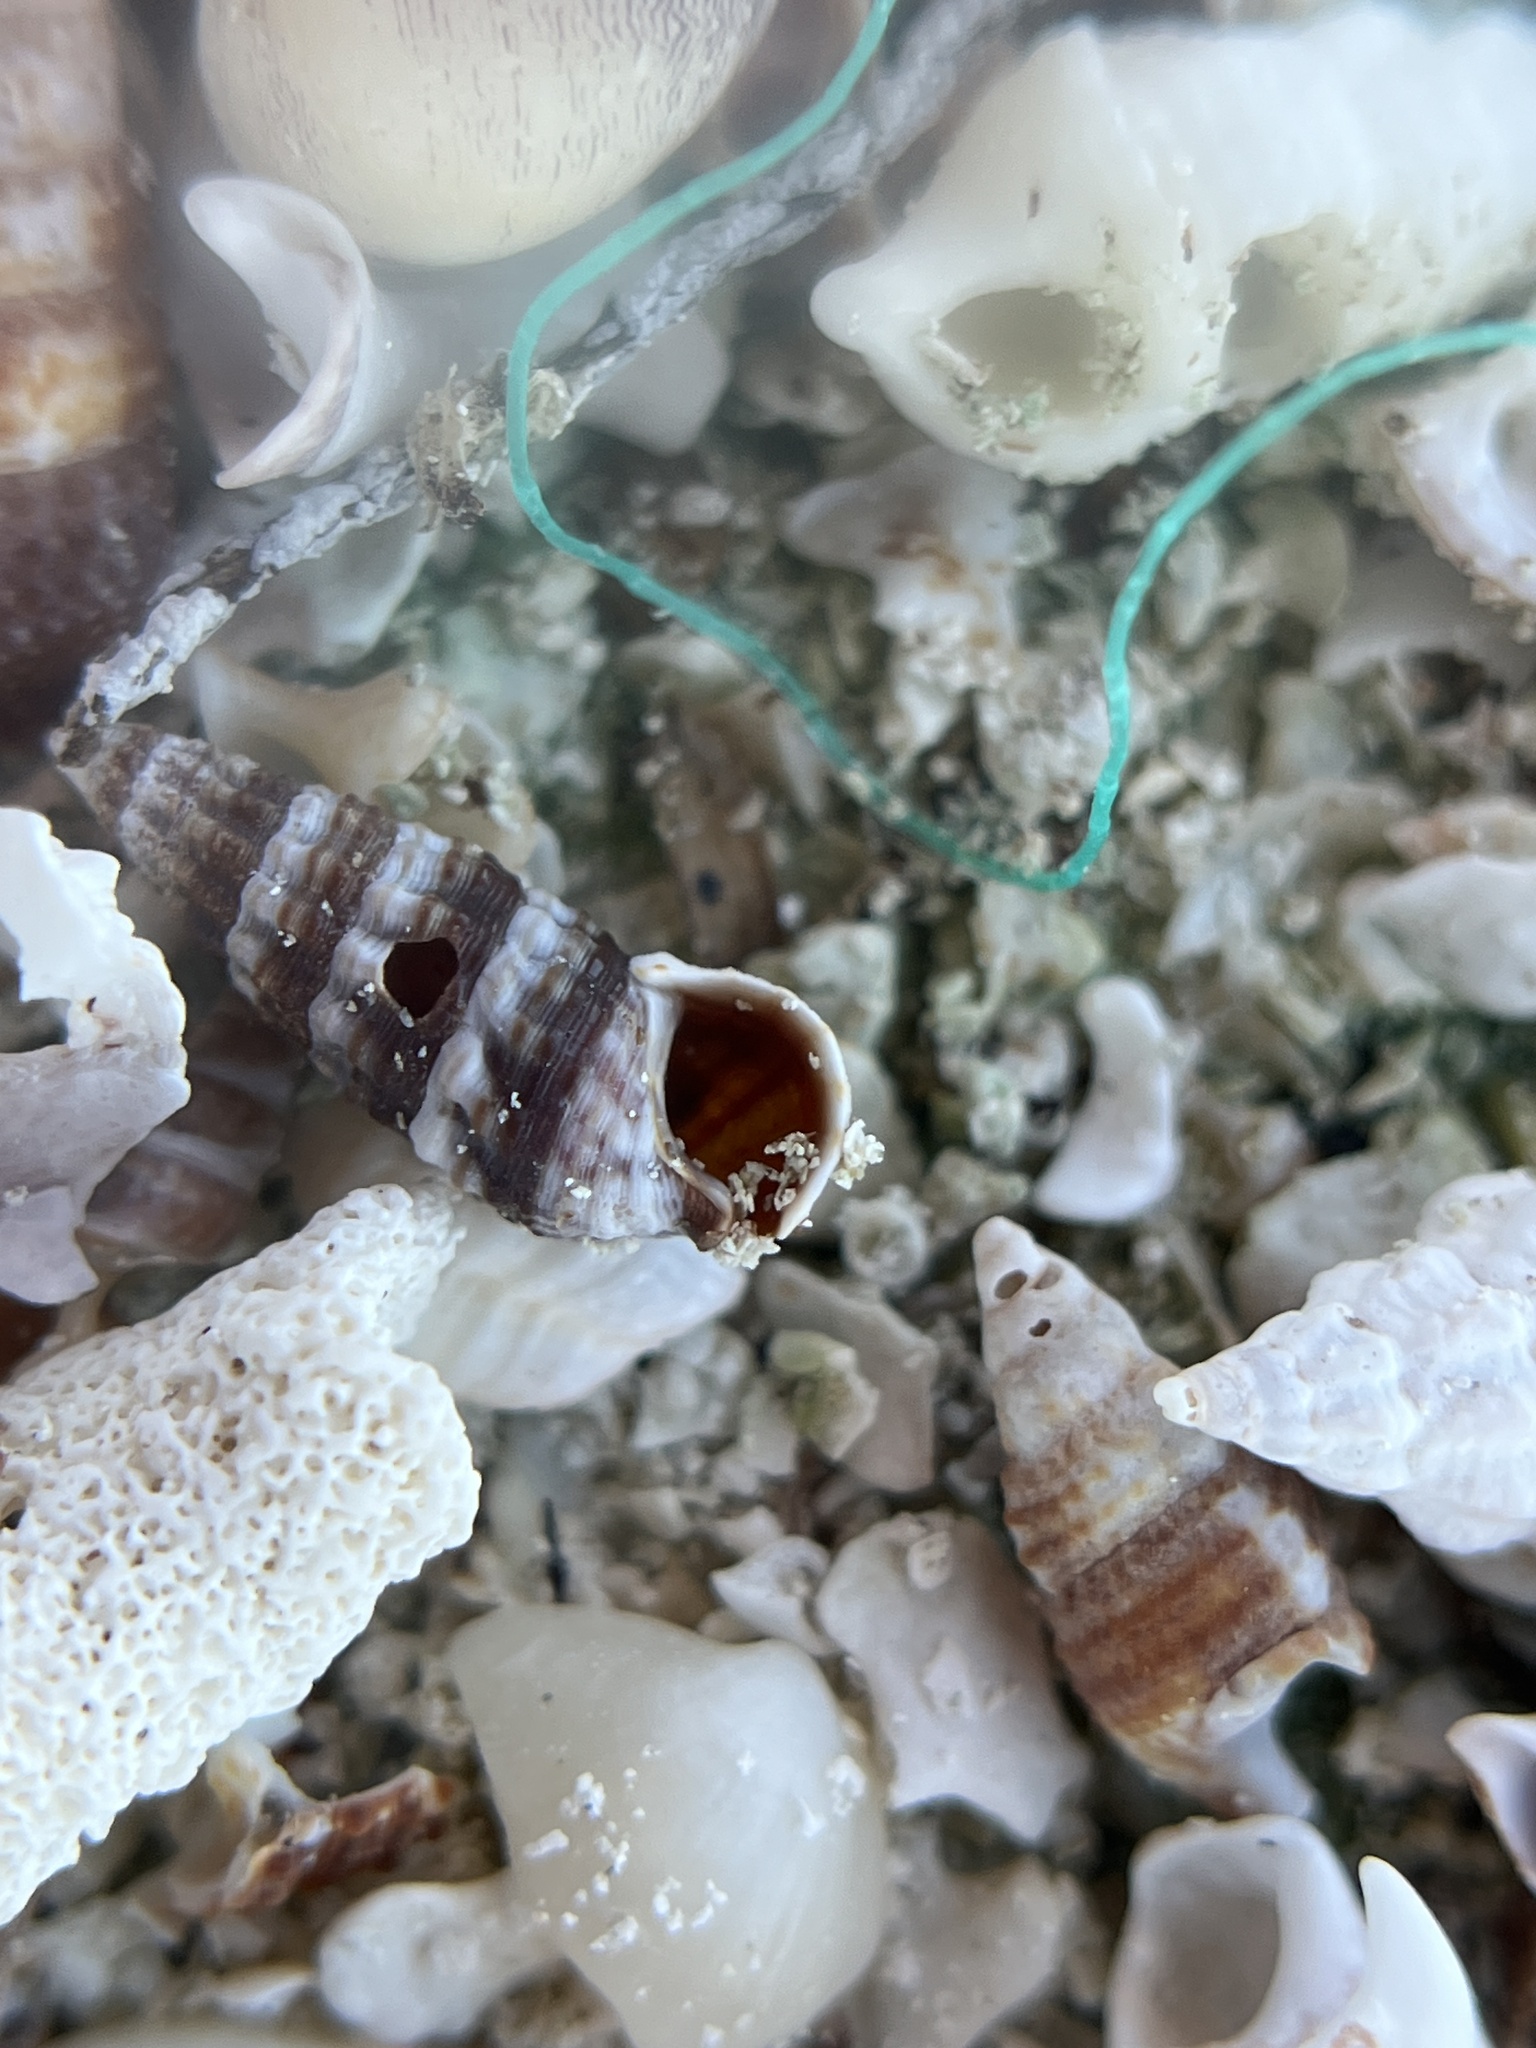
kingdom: Animalia
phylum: Mollusca
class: Gastropoda
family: Batillariidae
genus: Lampanella
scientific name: Lampanella minima
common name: West indian false cerith
